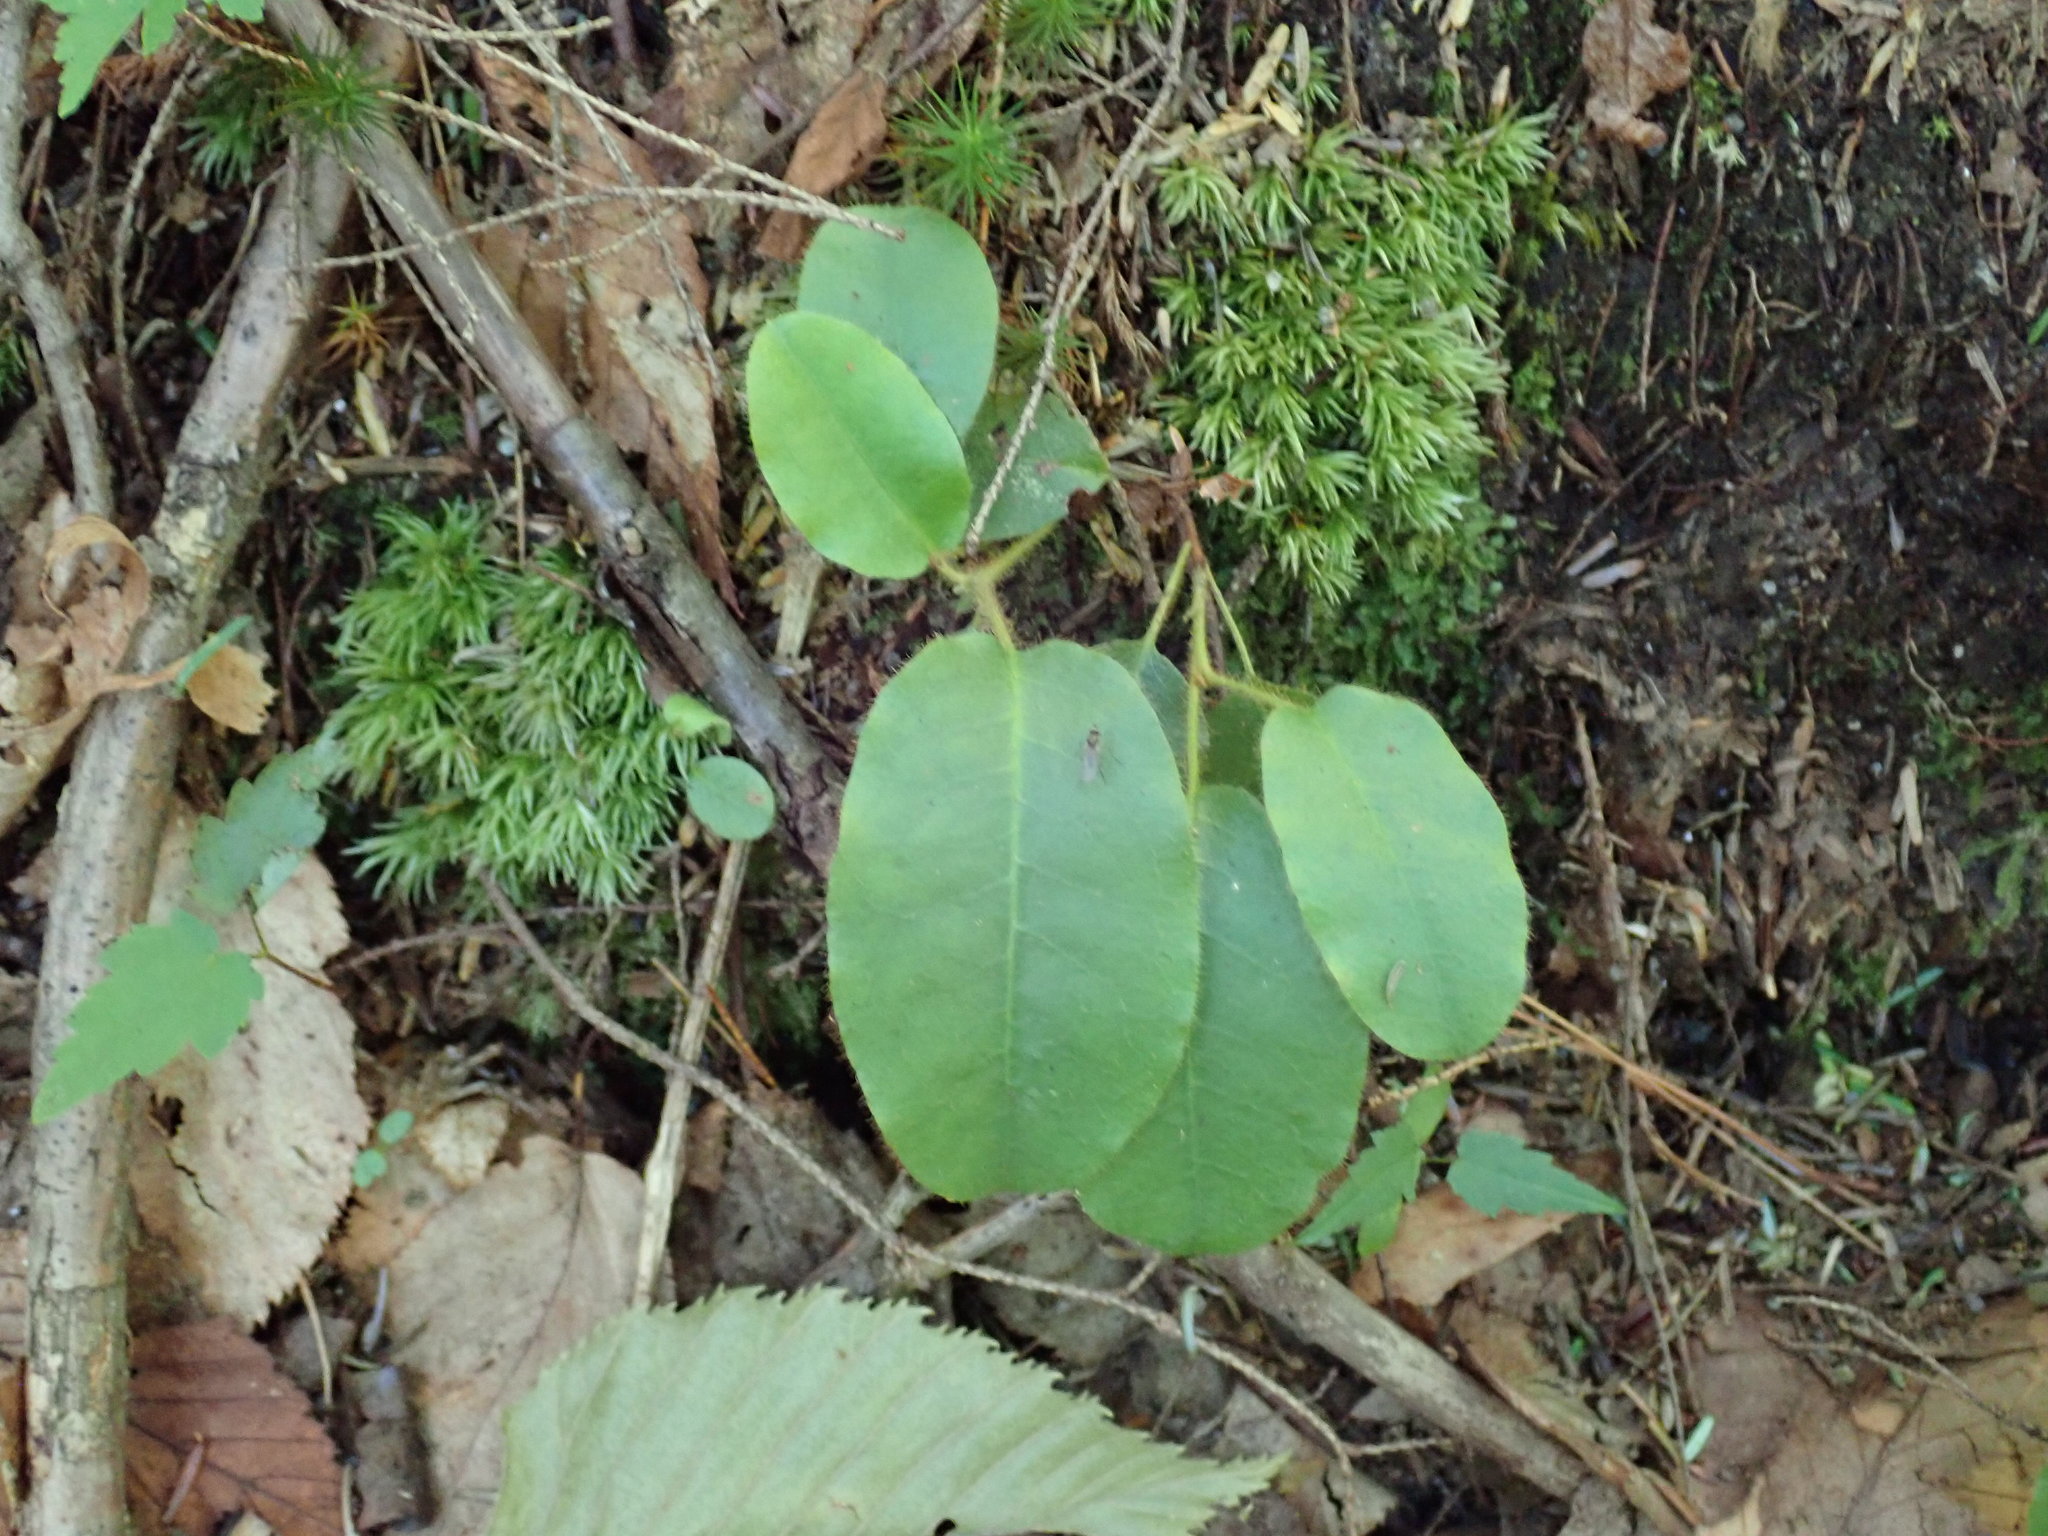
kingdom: Plantae
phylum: Tracheophyta
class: Magnoliopsida
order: Ericales
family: Ericaceae
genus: Epigaea
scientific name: Epigaea repens
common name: Gravelroot
